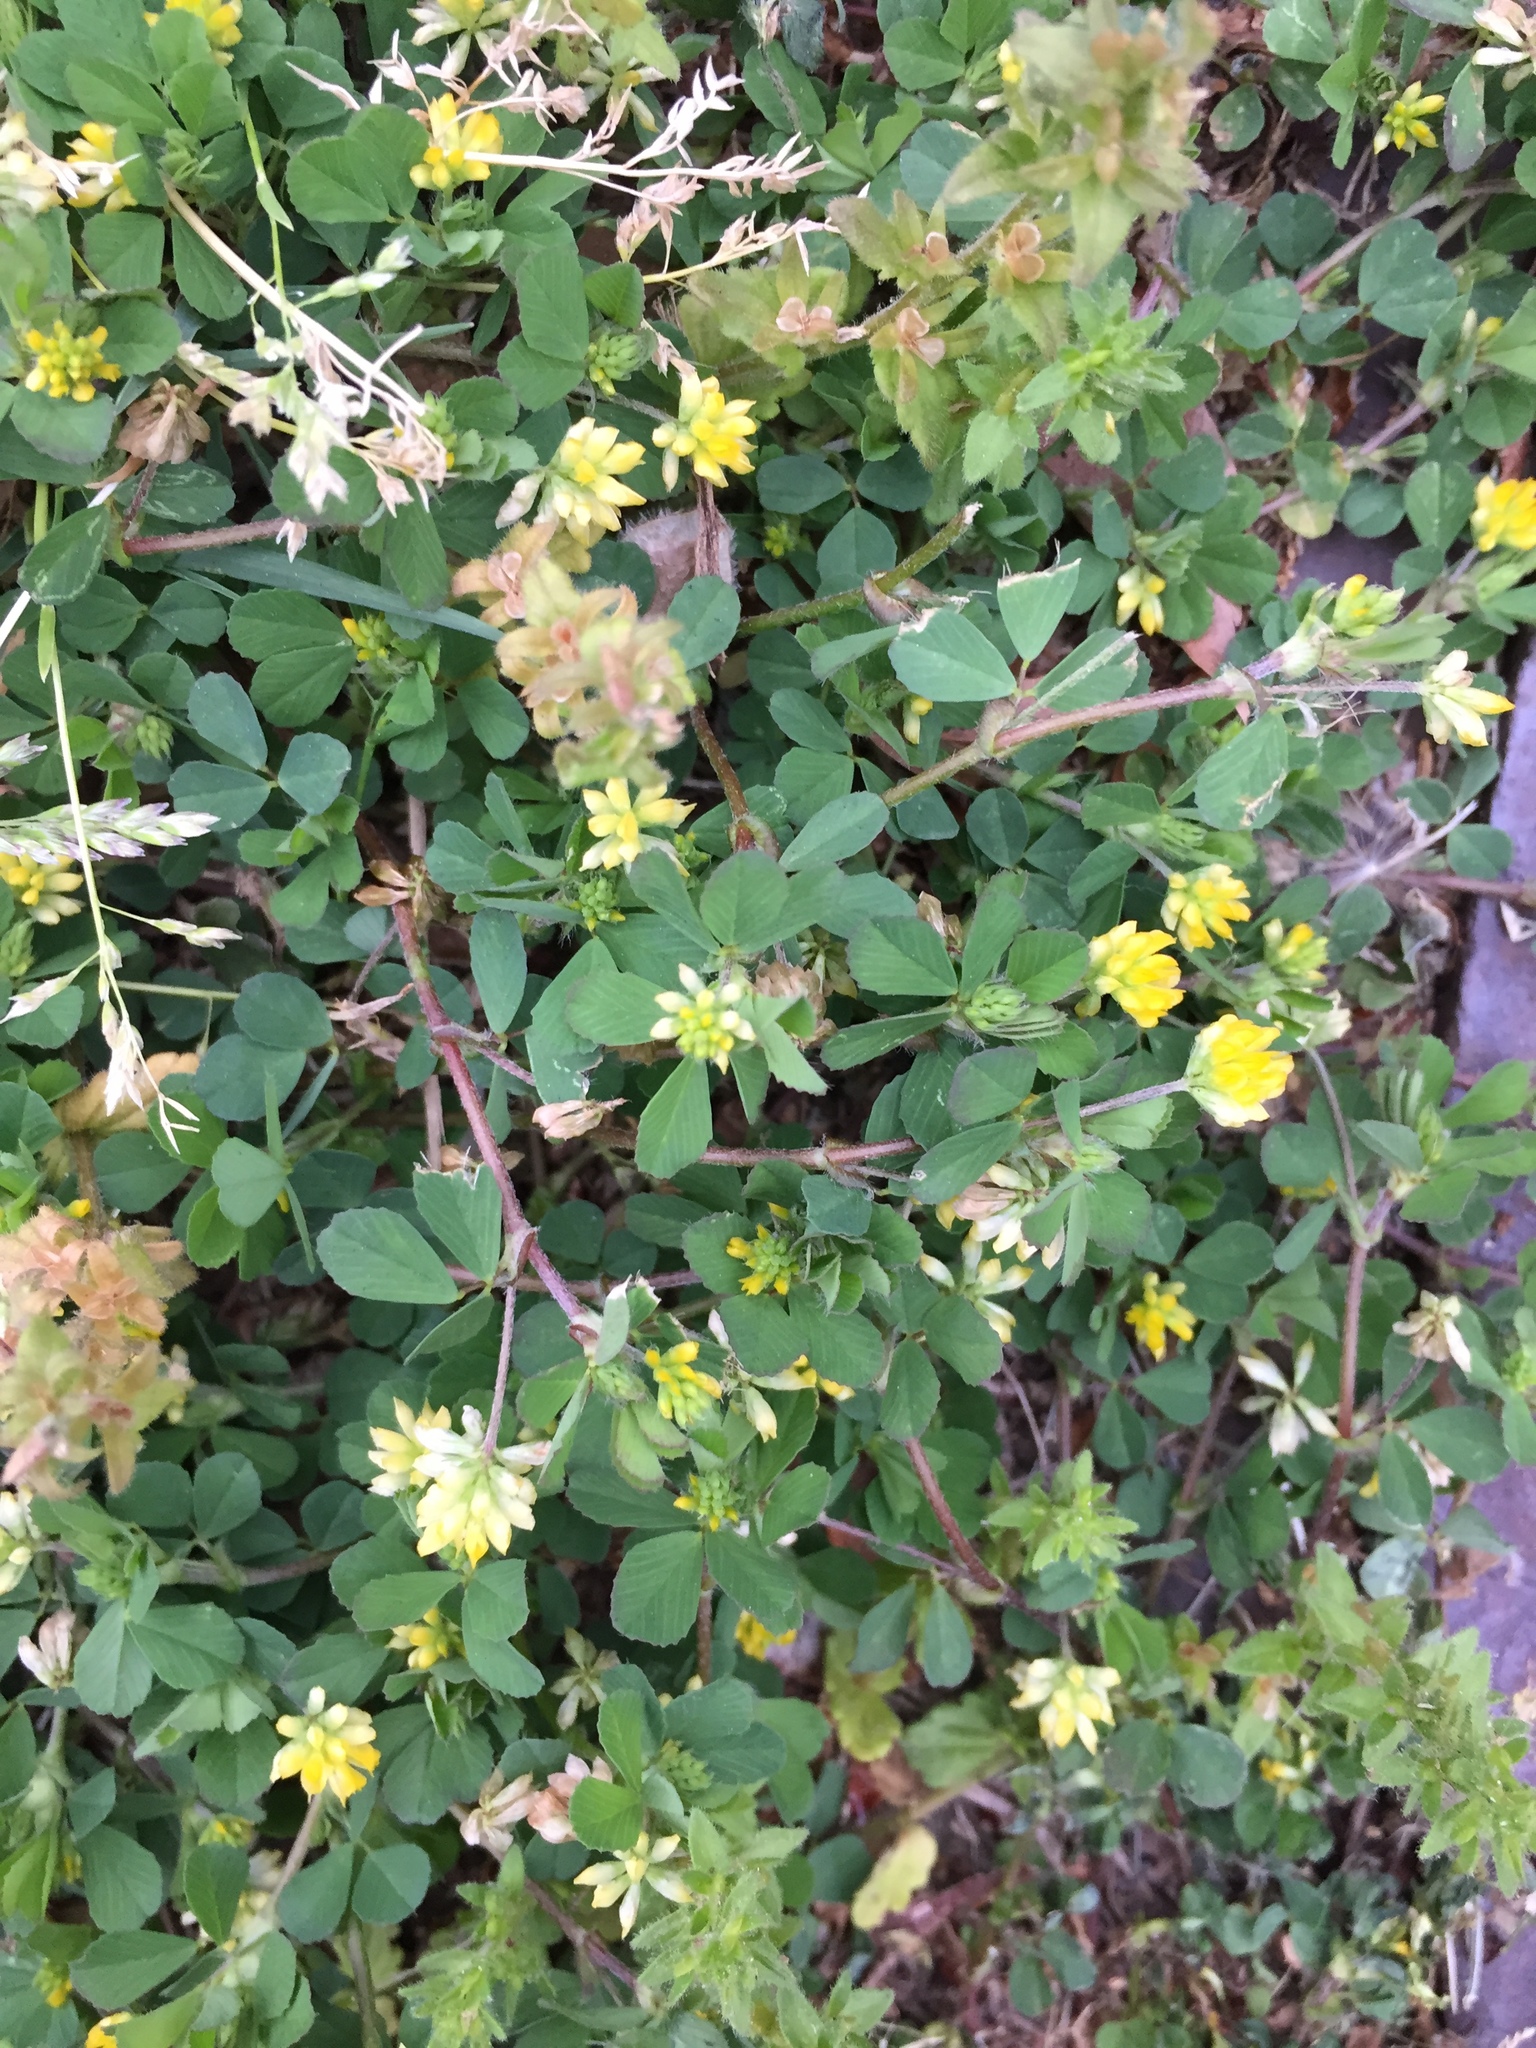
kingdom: Plantae
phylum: Tracheophyta
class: Magnoliopsida
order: Fabales
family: Fabaceae
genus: Trifolium
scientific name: Trifolium dubium
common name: Suckling clover
